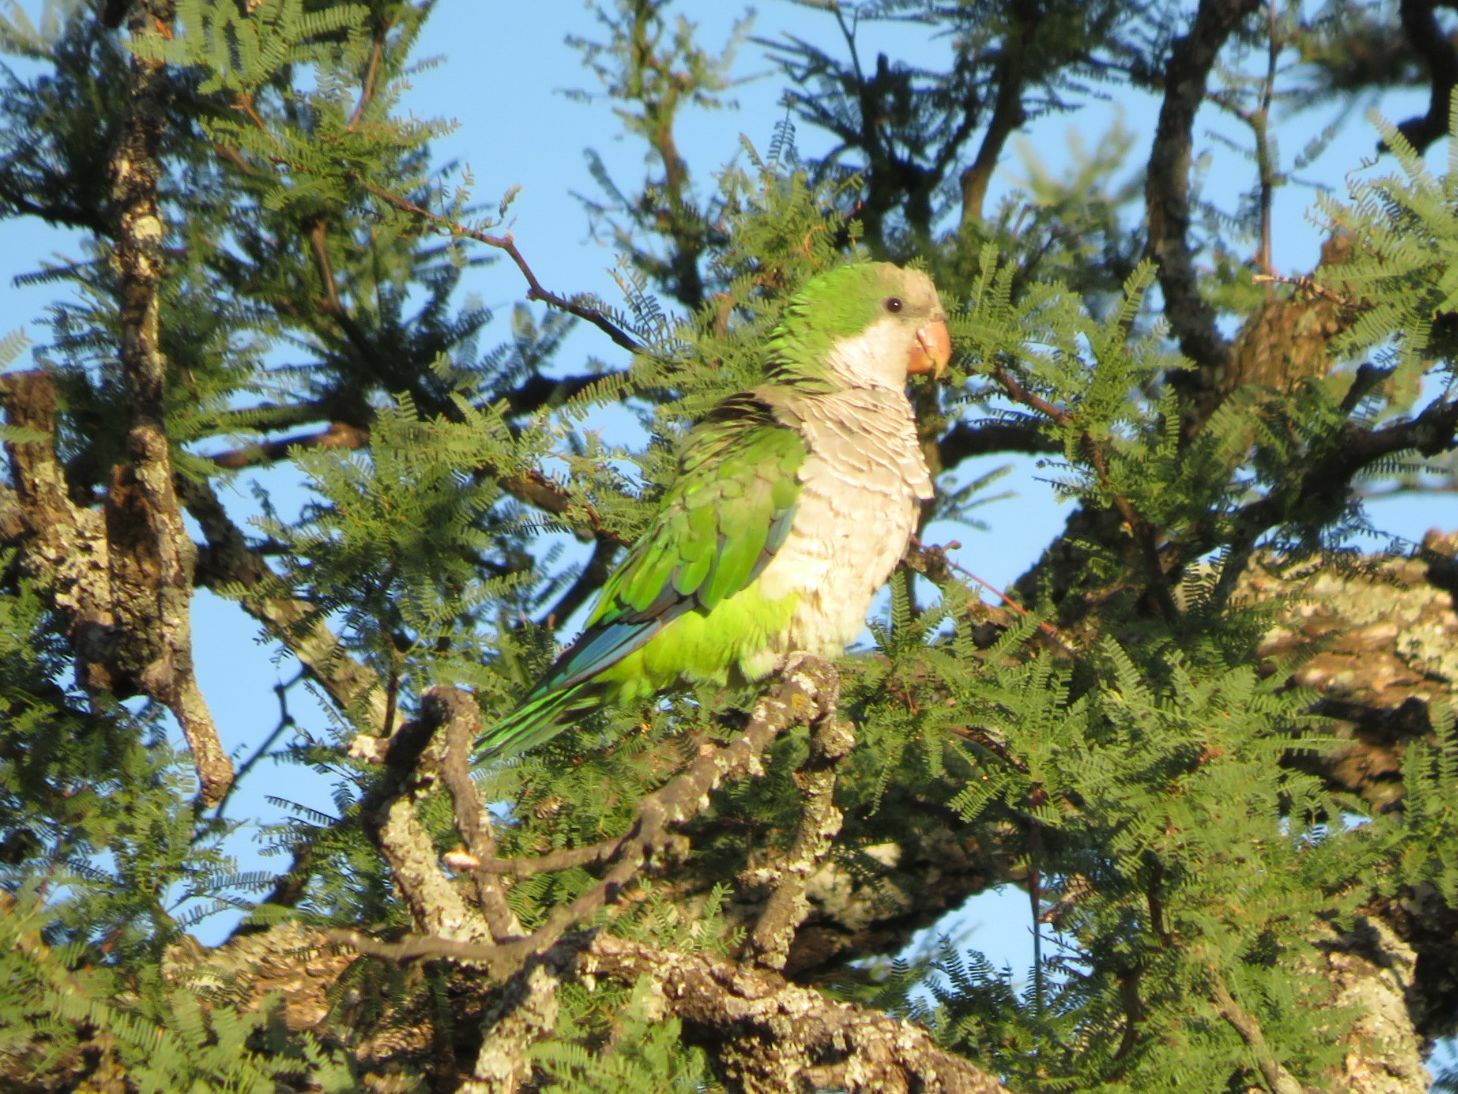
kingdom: Animalia
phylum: Chordata
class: Aves
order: Psittaciformes
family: Psittacidae
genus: Myiopsitta
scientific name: Myiopsitta monachus
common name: Monk parakeet
